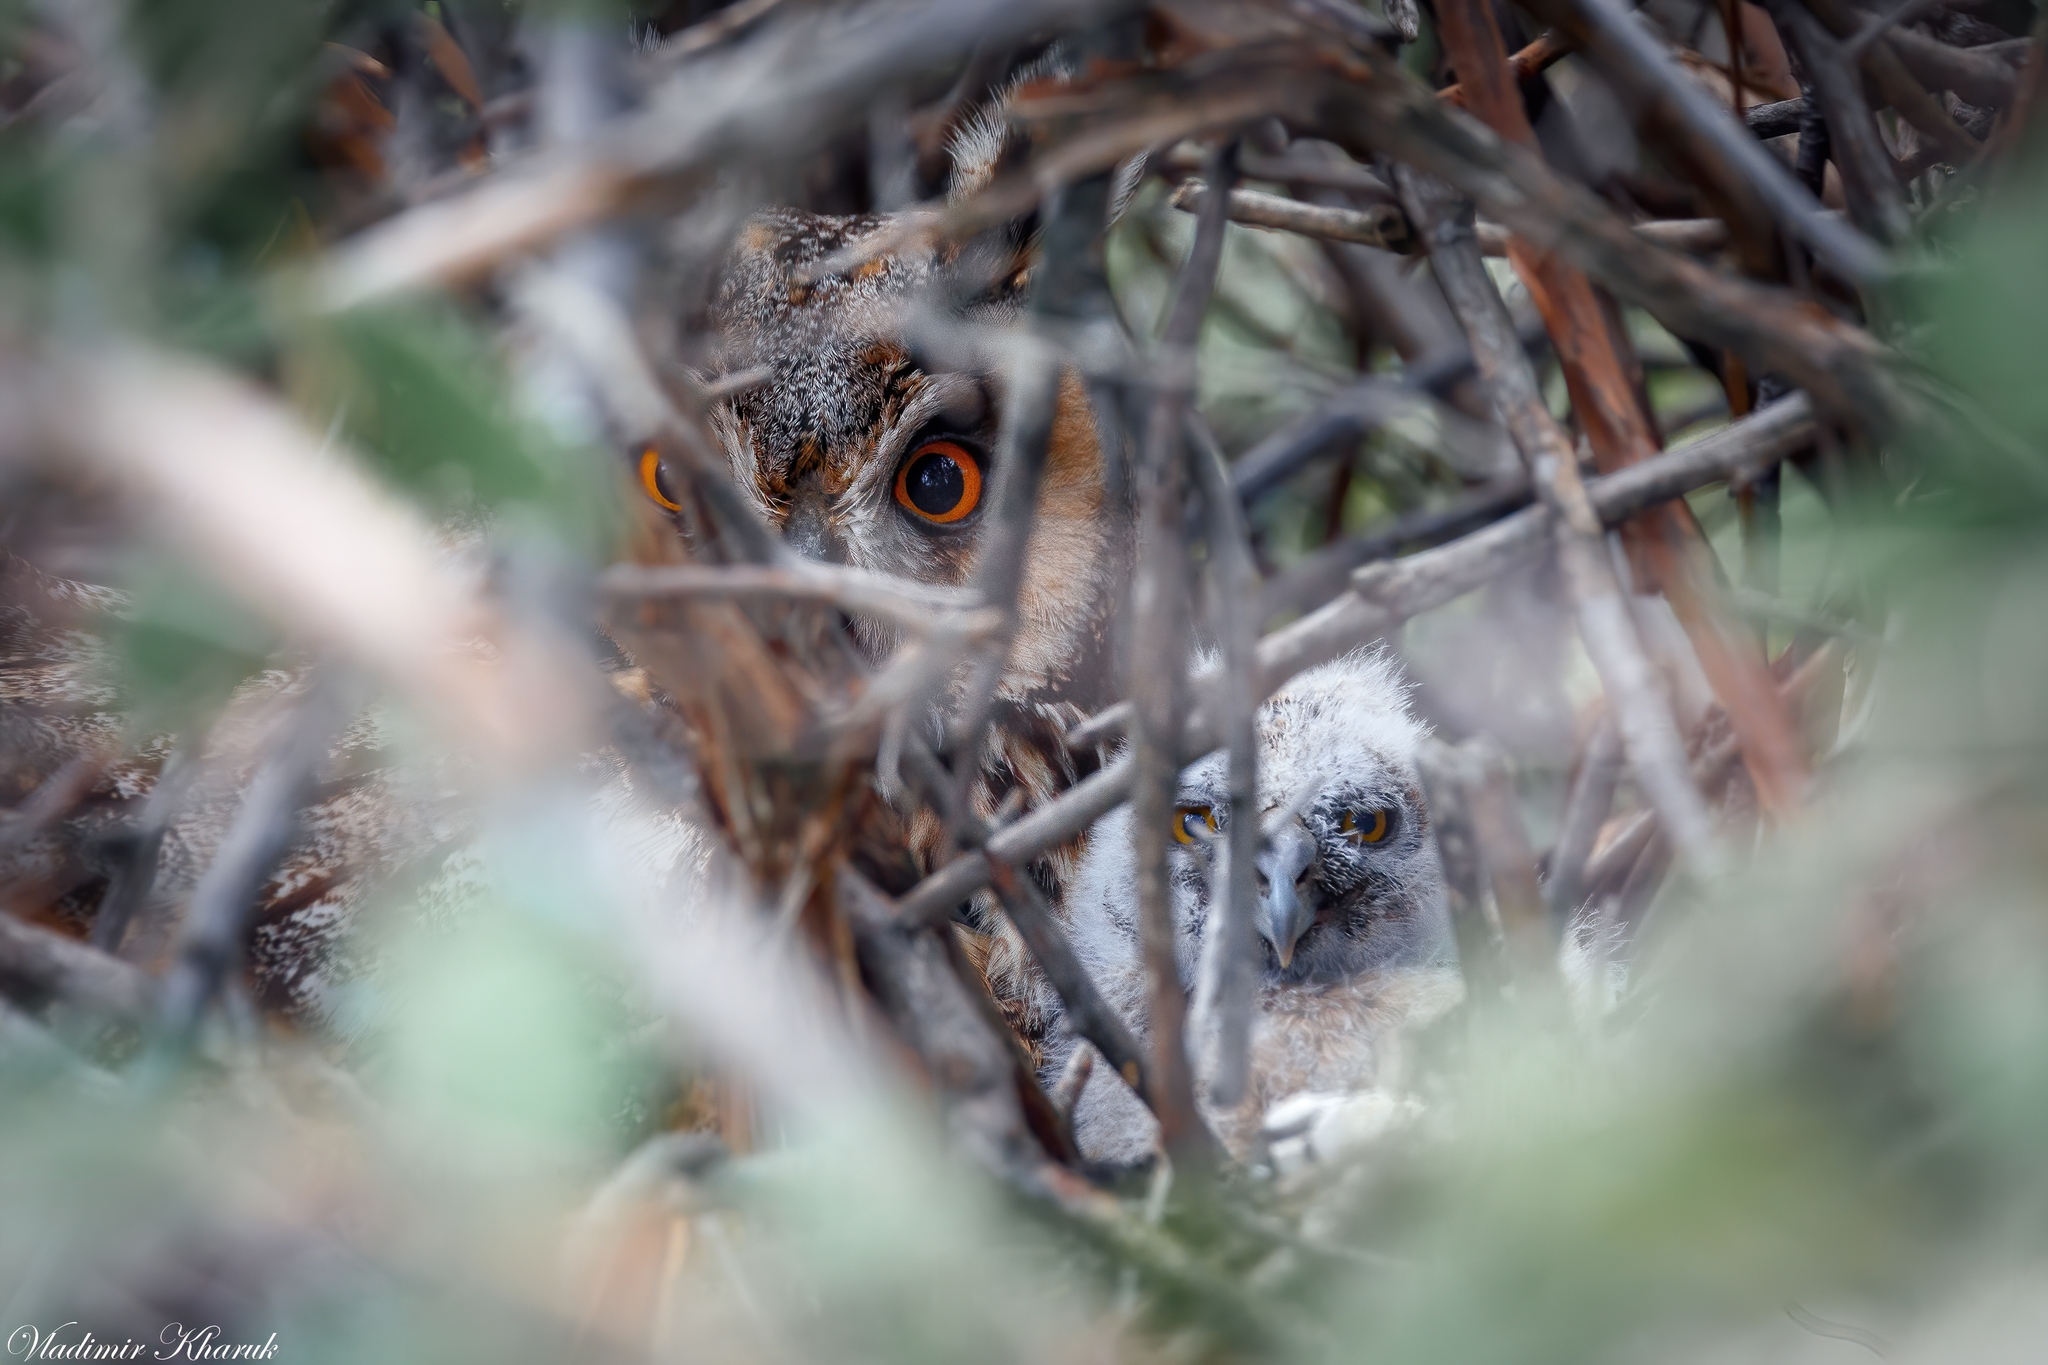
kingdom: Animalia
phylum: Chordata
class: Aves
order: Strigiformes
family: Strigidae
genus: Asio
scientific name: Asio otus
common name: Long-eared owl
